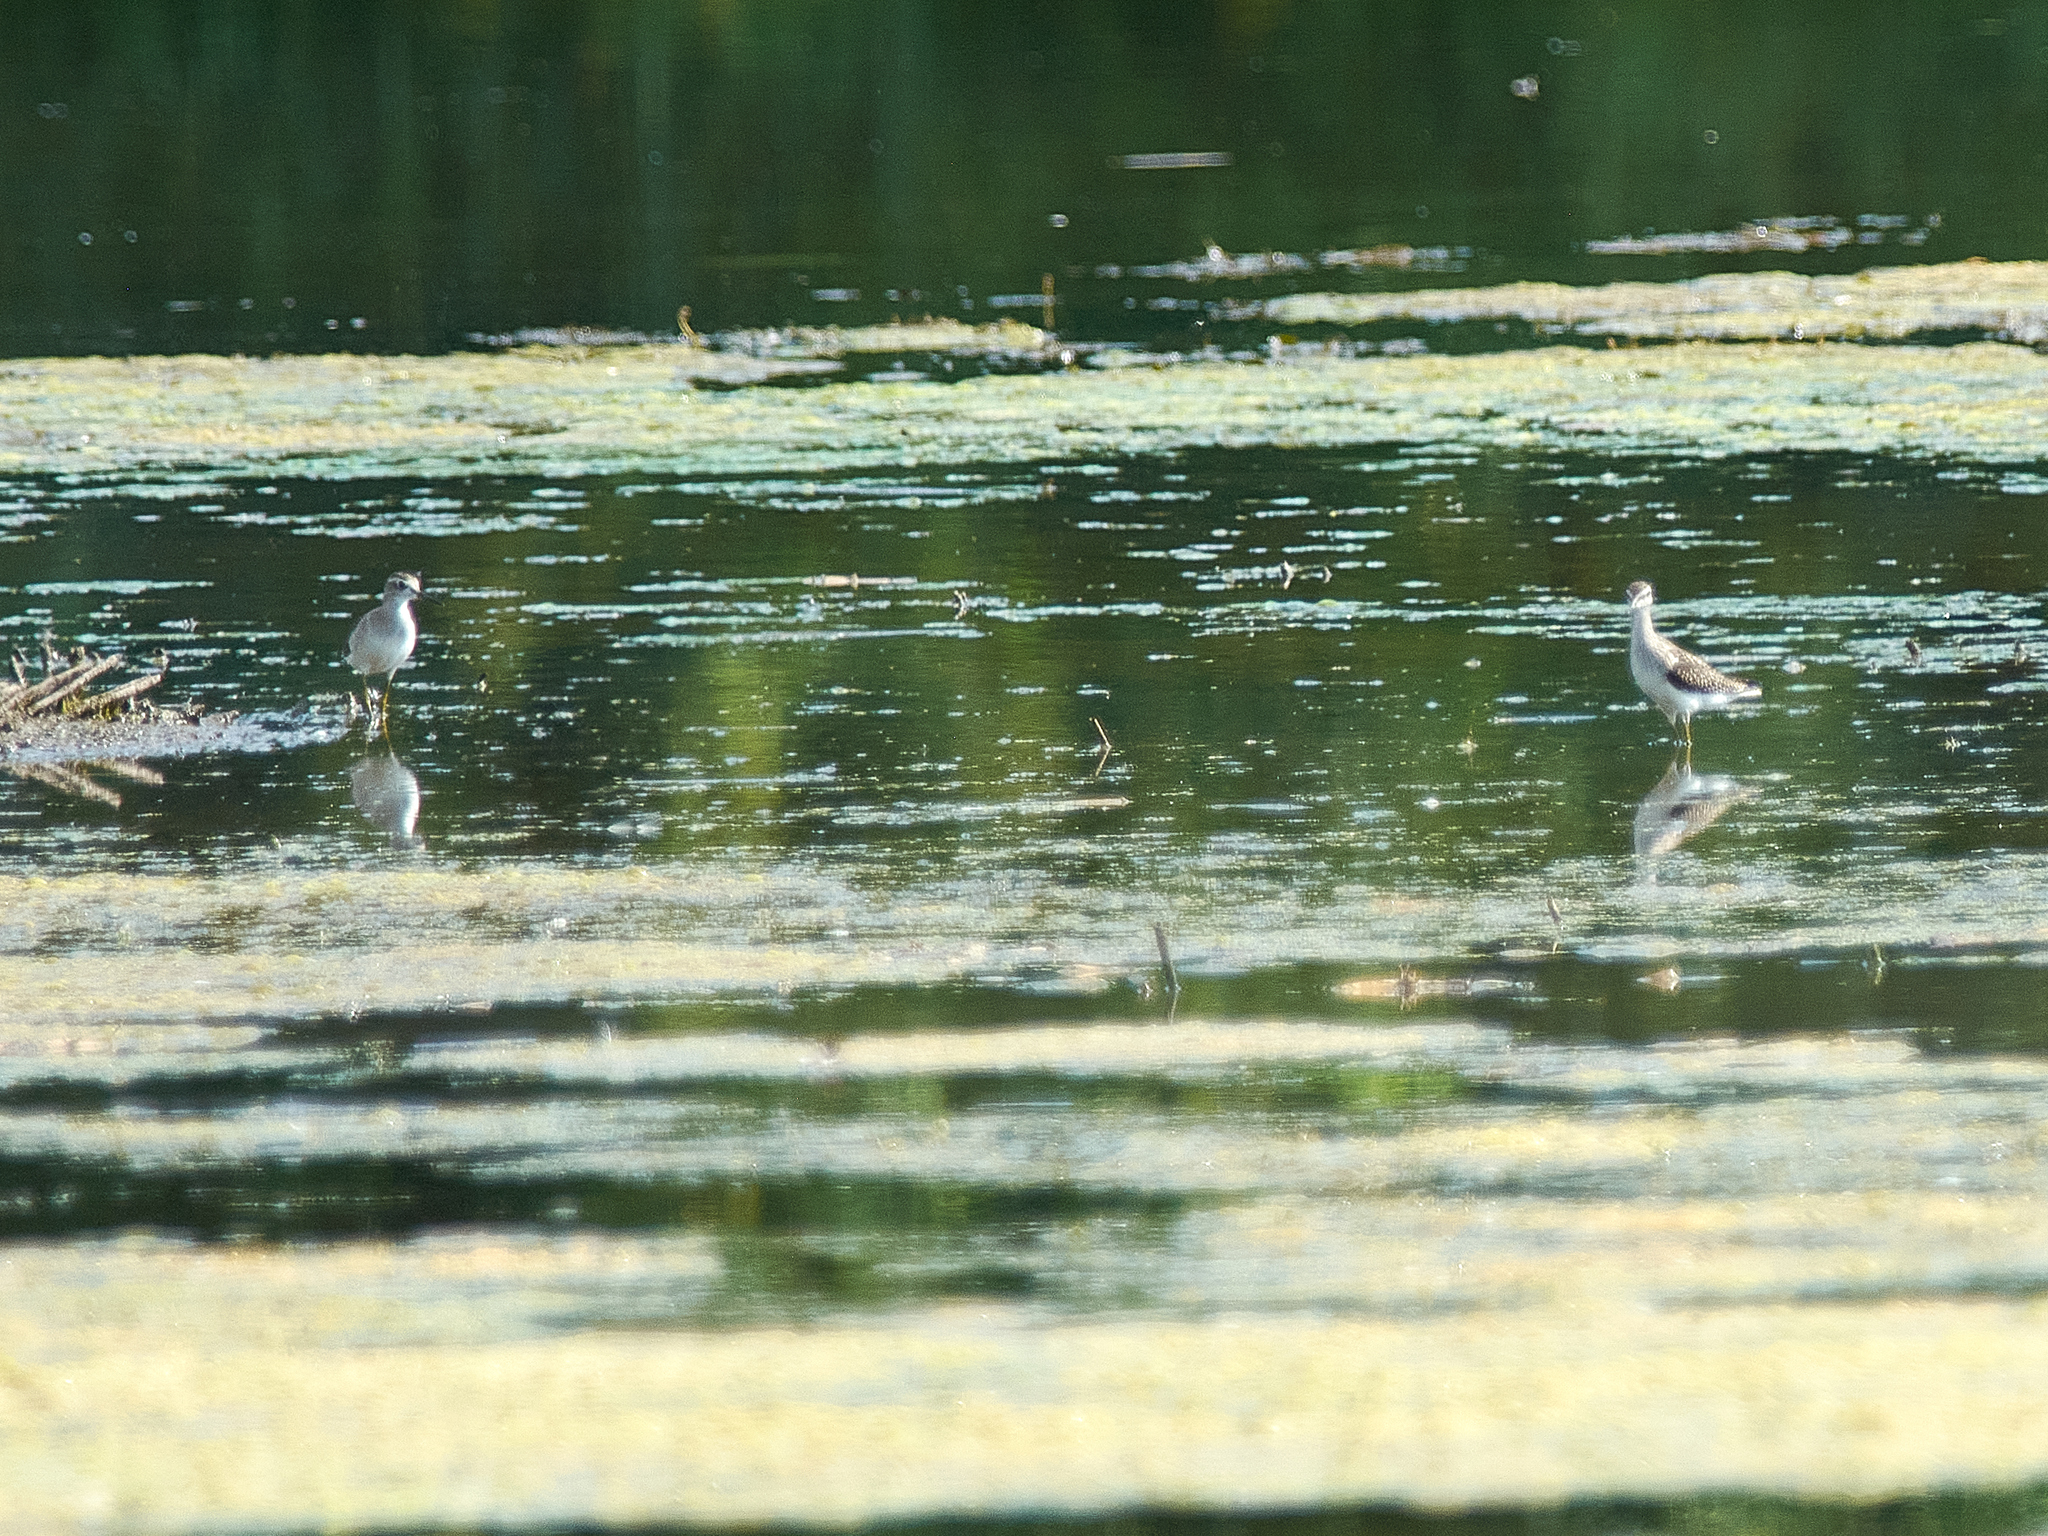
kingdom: Animalia
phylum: Chordata
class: Aves
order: Charadriiformes
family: Scolopacidae
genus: Tringa
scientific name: Tringa glareola
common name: Wood sandpiper
